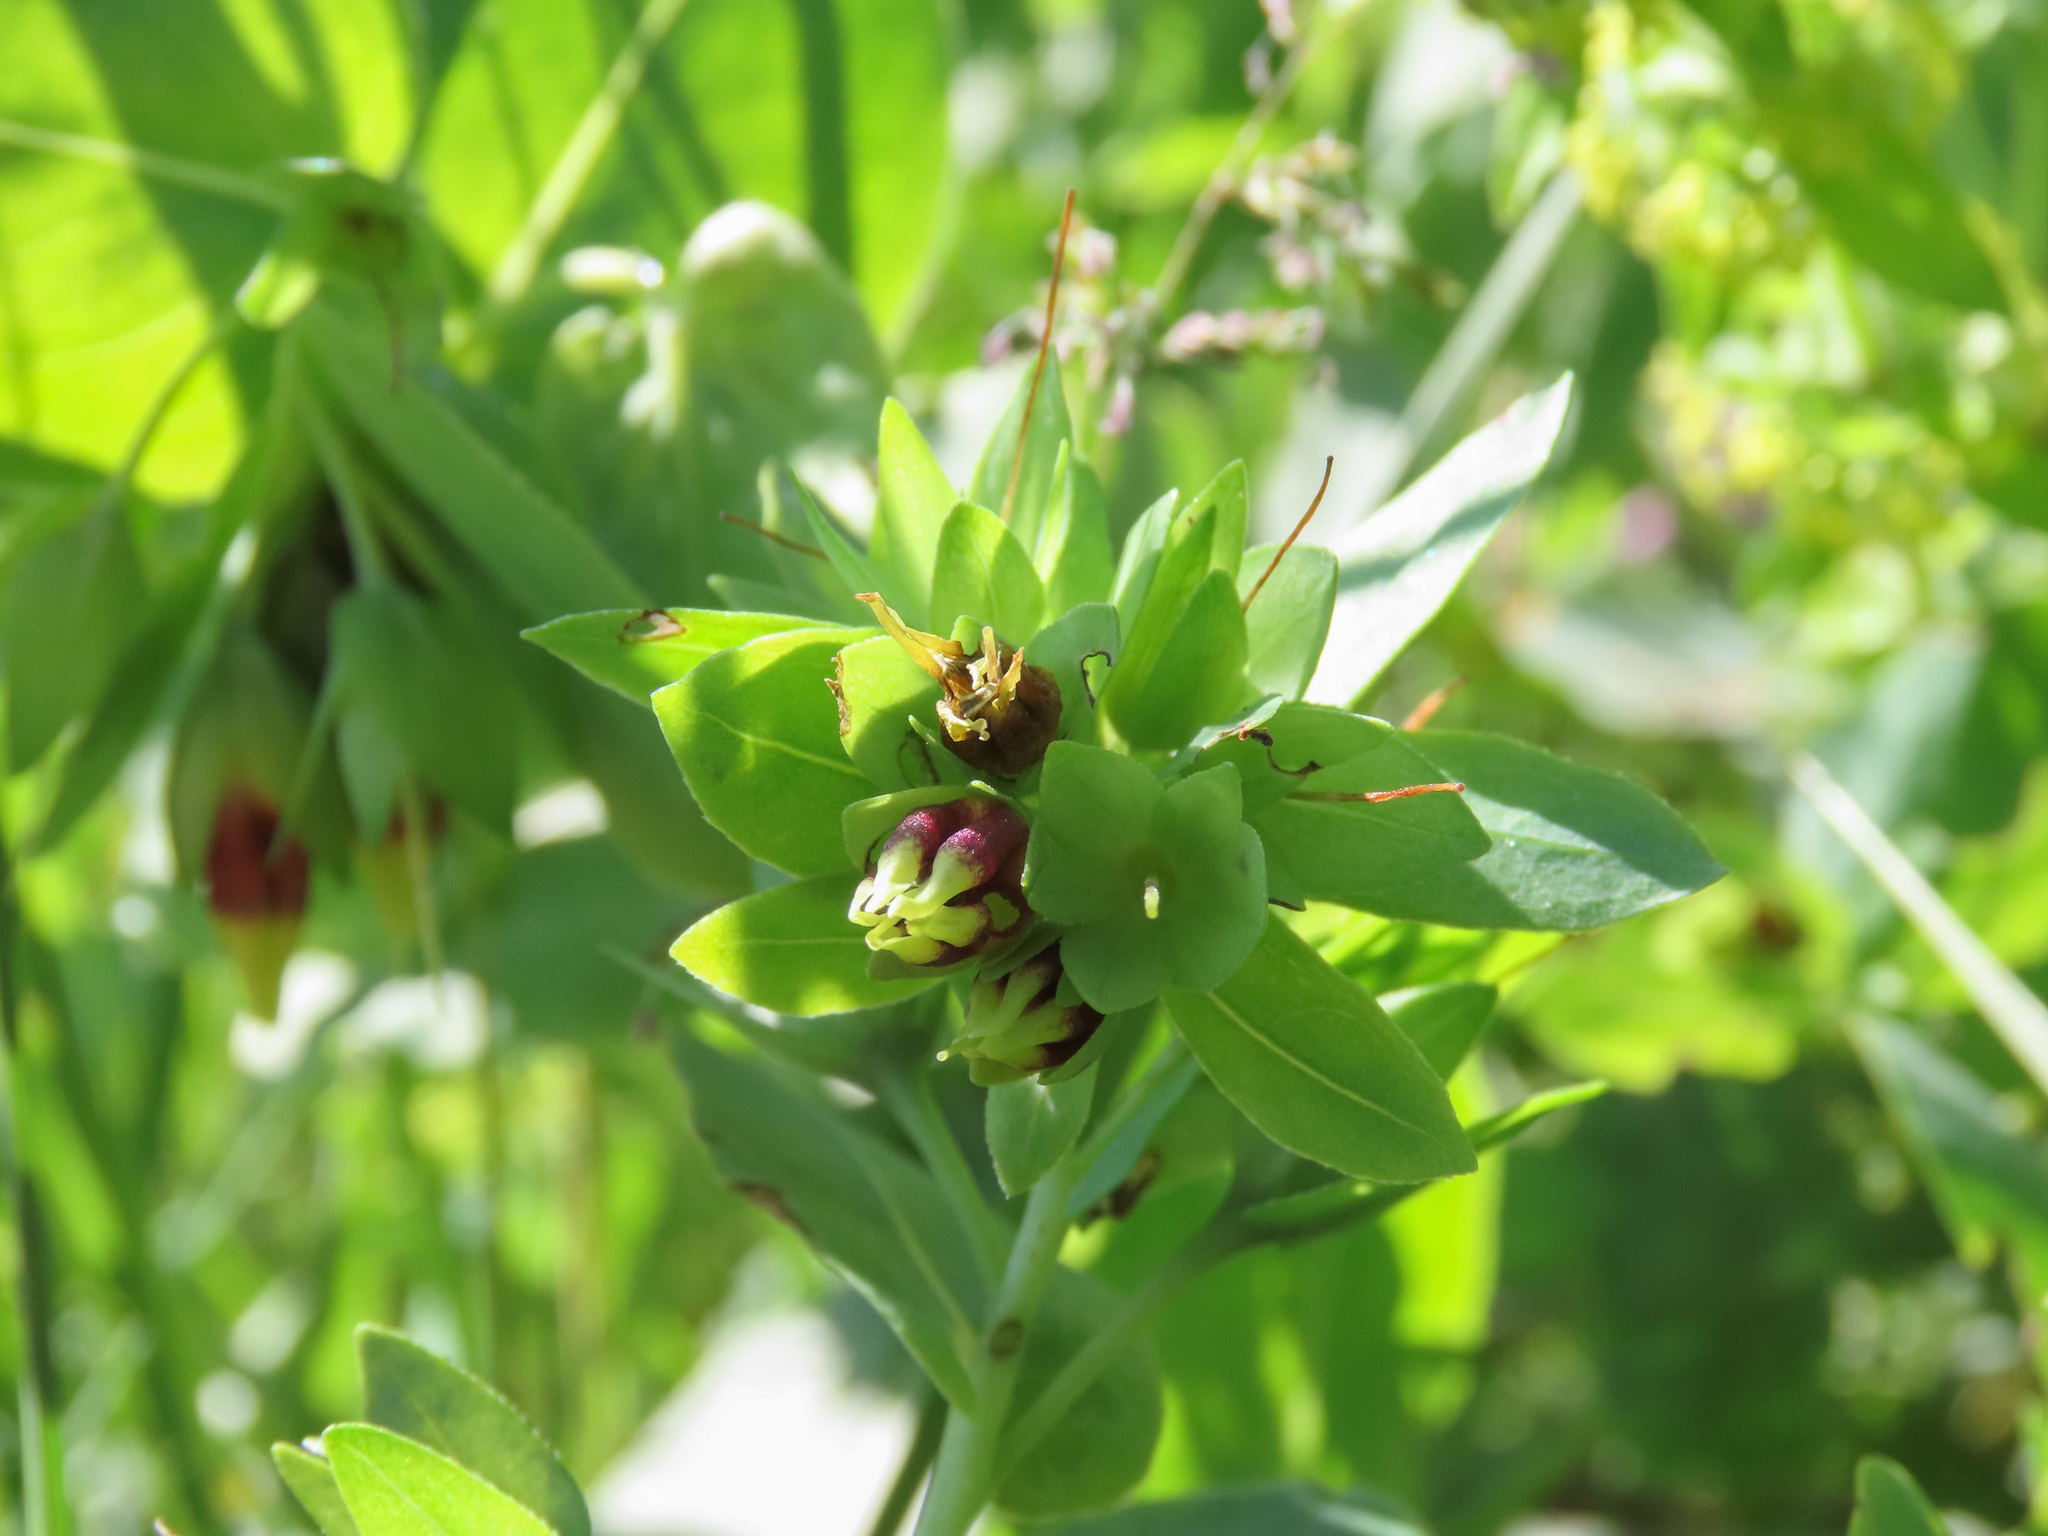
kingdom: Plantae
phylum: Tracheophyta
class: Magnoliopsida
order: Boraginales
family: Boraginaceae
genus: Cerinthe
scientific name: Cerinthe minor
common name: Lesser honeywort
